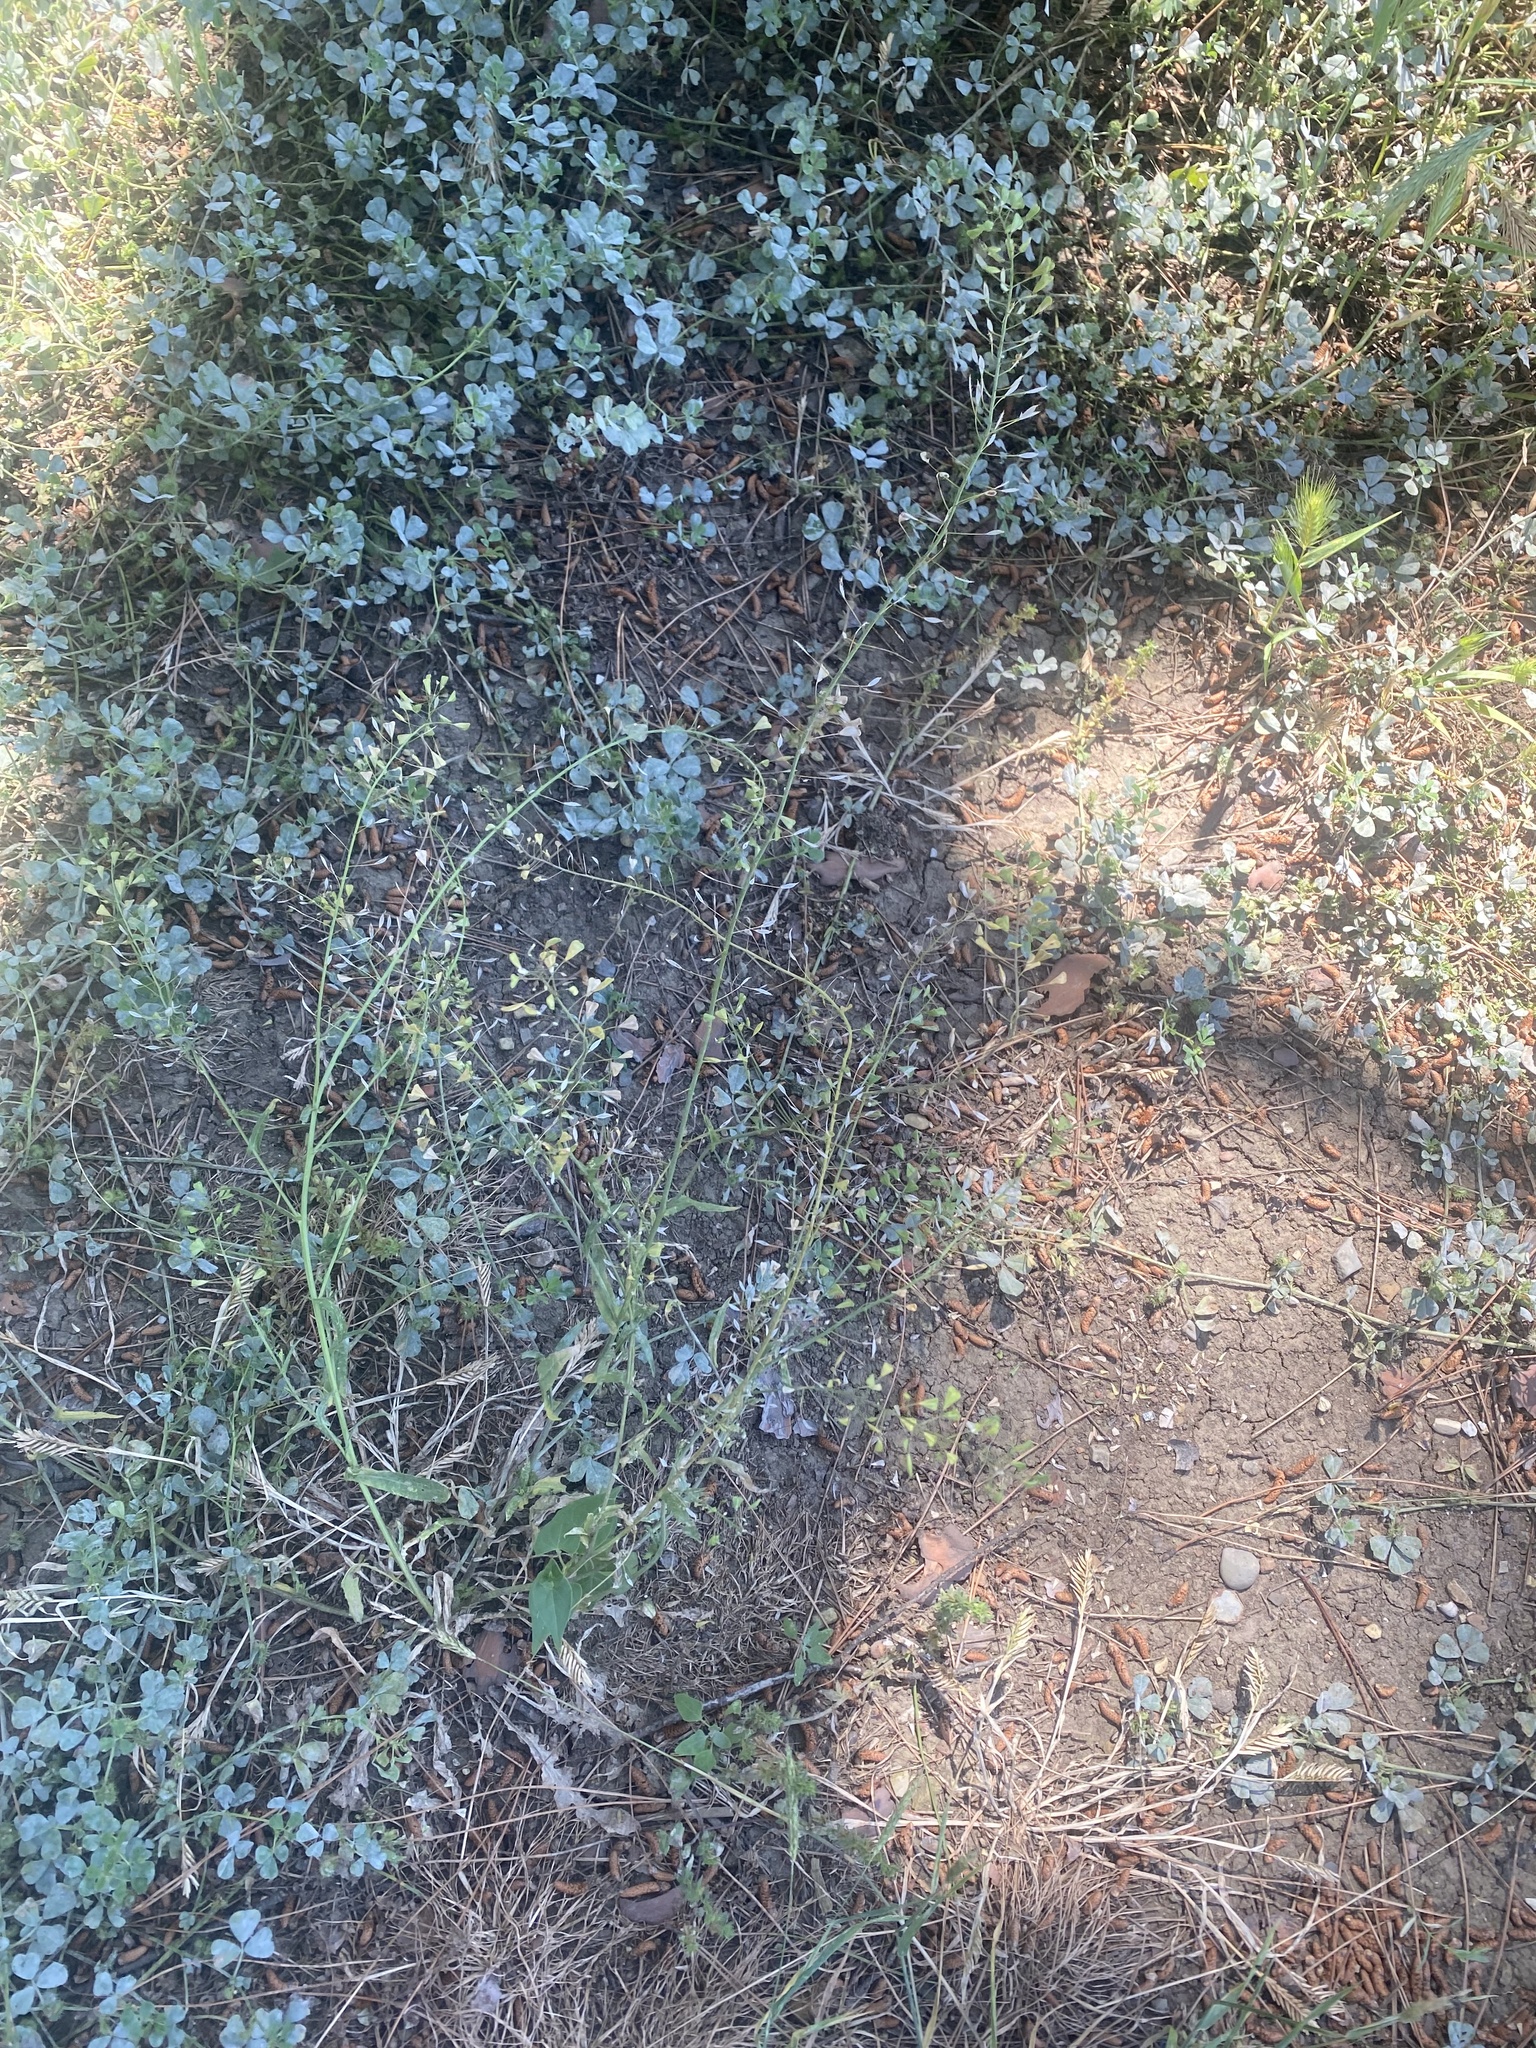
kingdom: Plantae
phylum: Tracheophyta
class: Magnoliopsida
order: Brassicales
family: Brassicaceae
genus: Capsella
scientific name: Capsella bursa-pastoris
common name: Shepherd's purse
